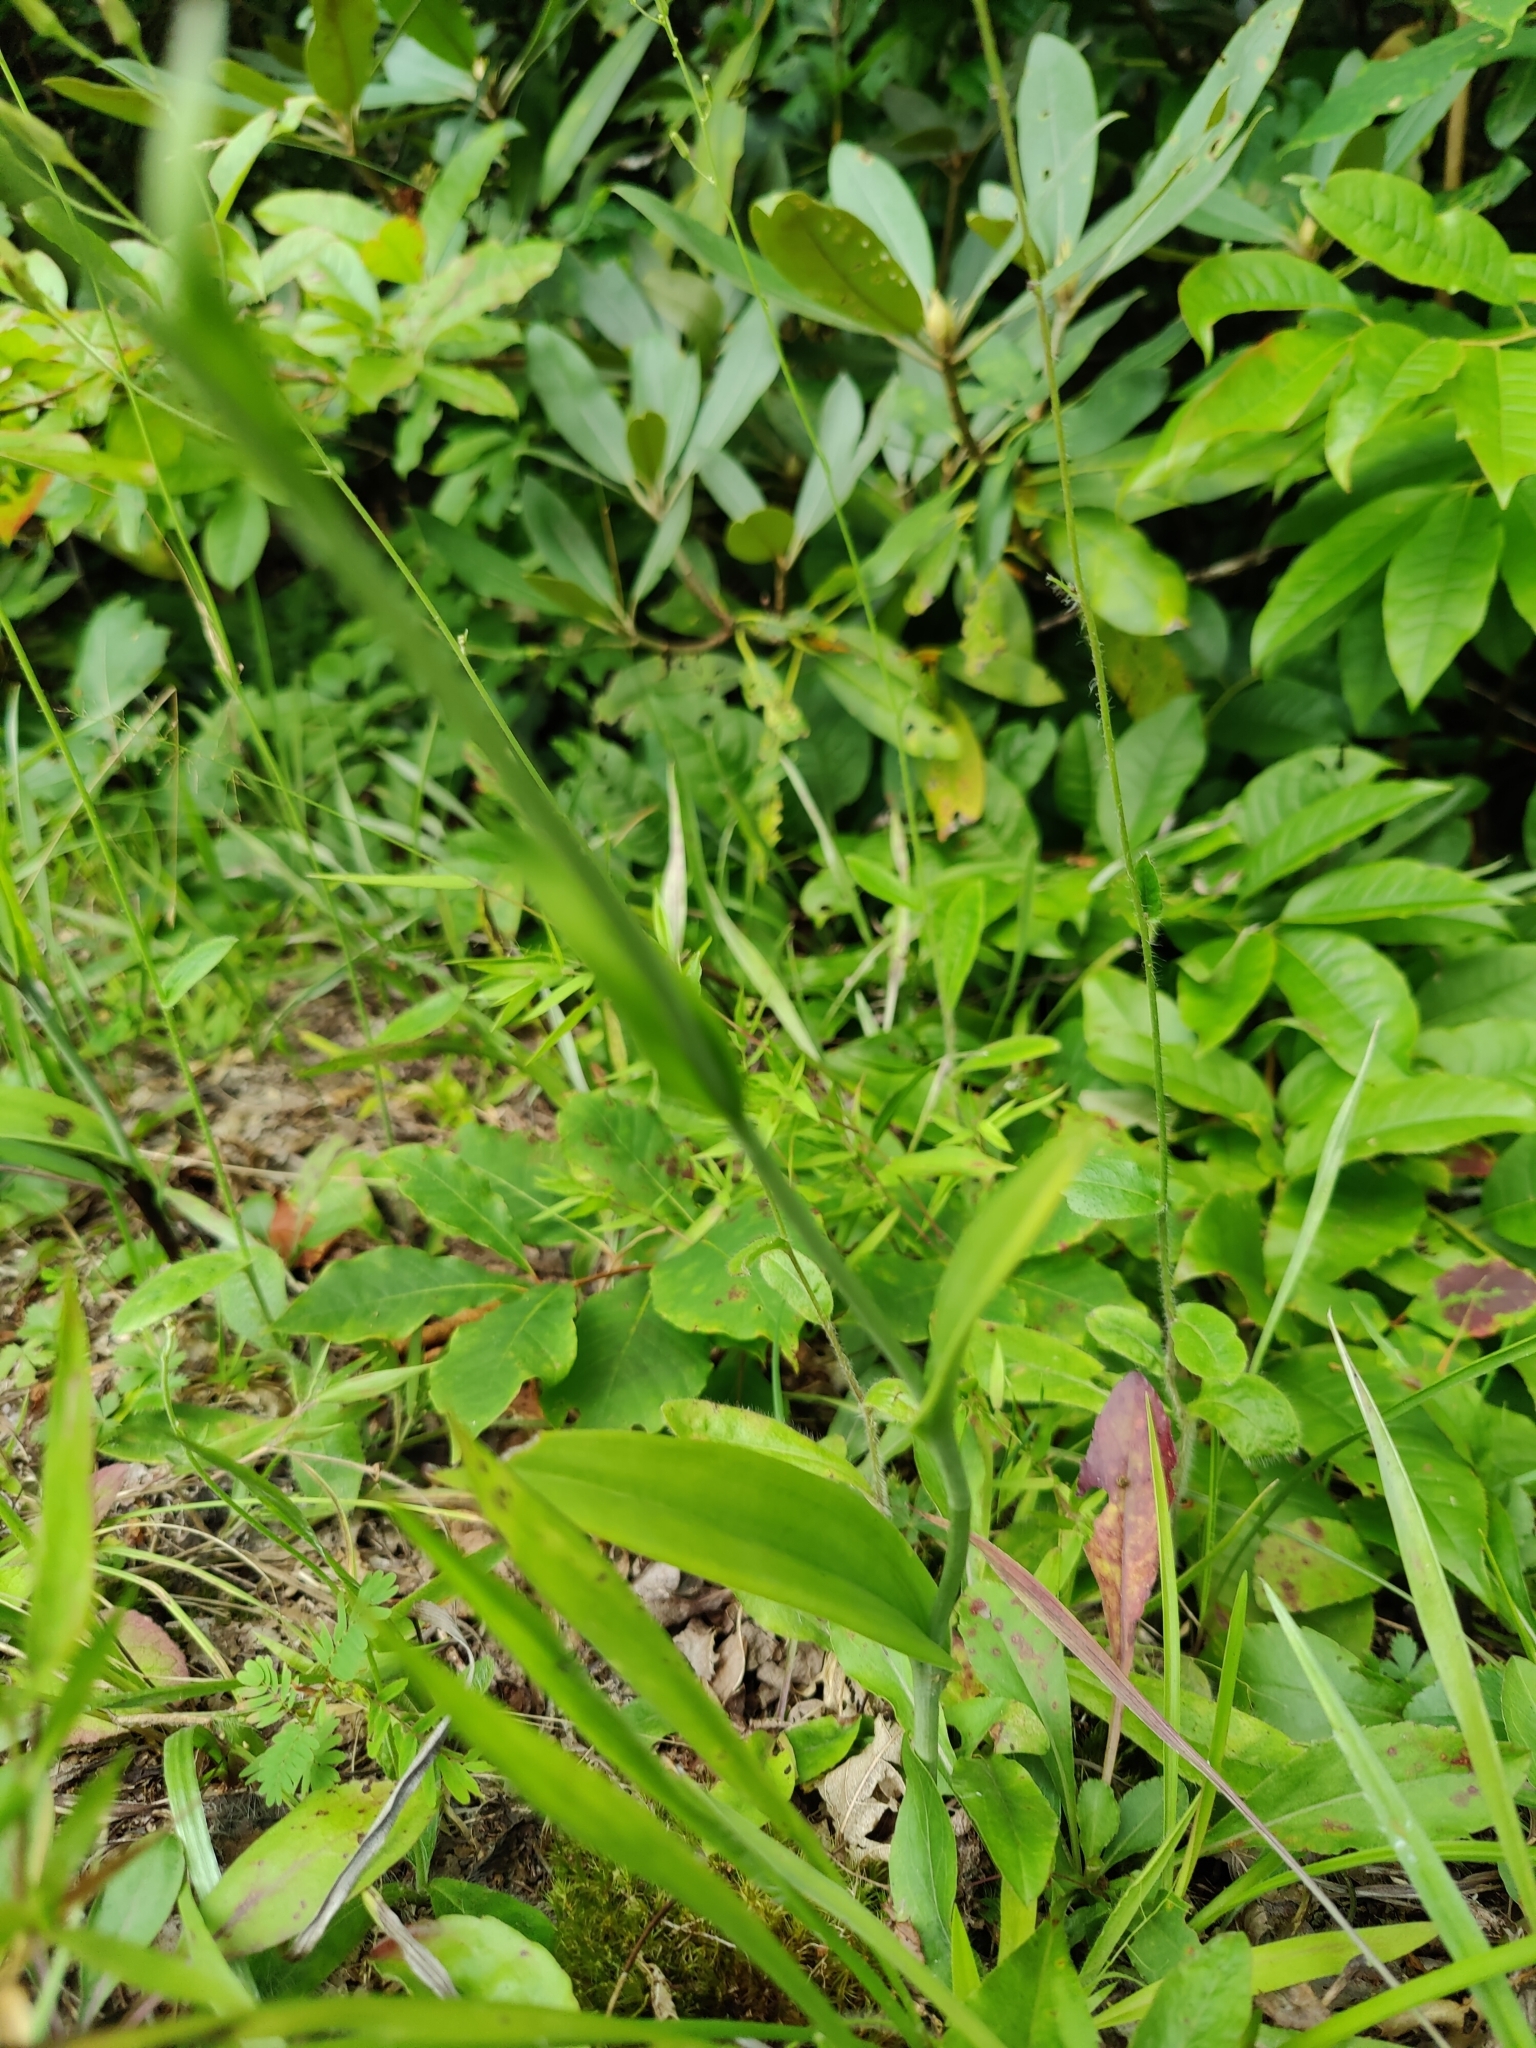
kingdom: Plantae
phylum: Tracheophyta
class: Liliopsida
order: Asparagales
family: Orchidaceae
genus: Platanthera
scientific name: Platanthera ciliaris
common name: Yellow fringed orchid
